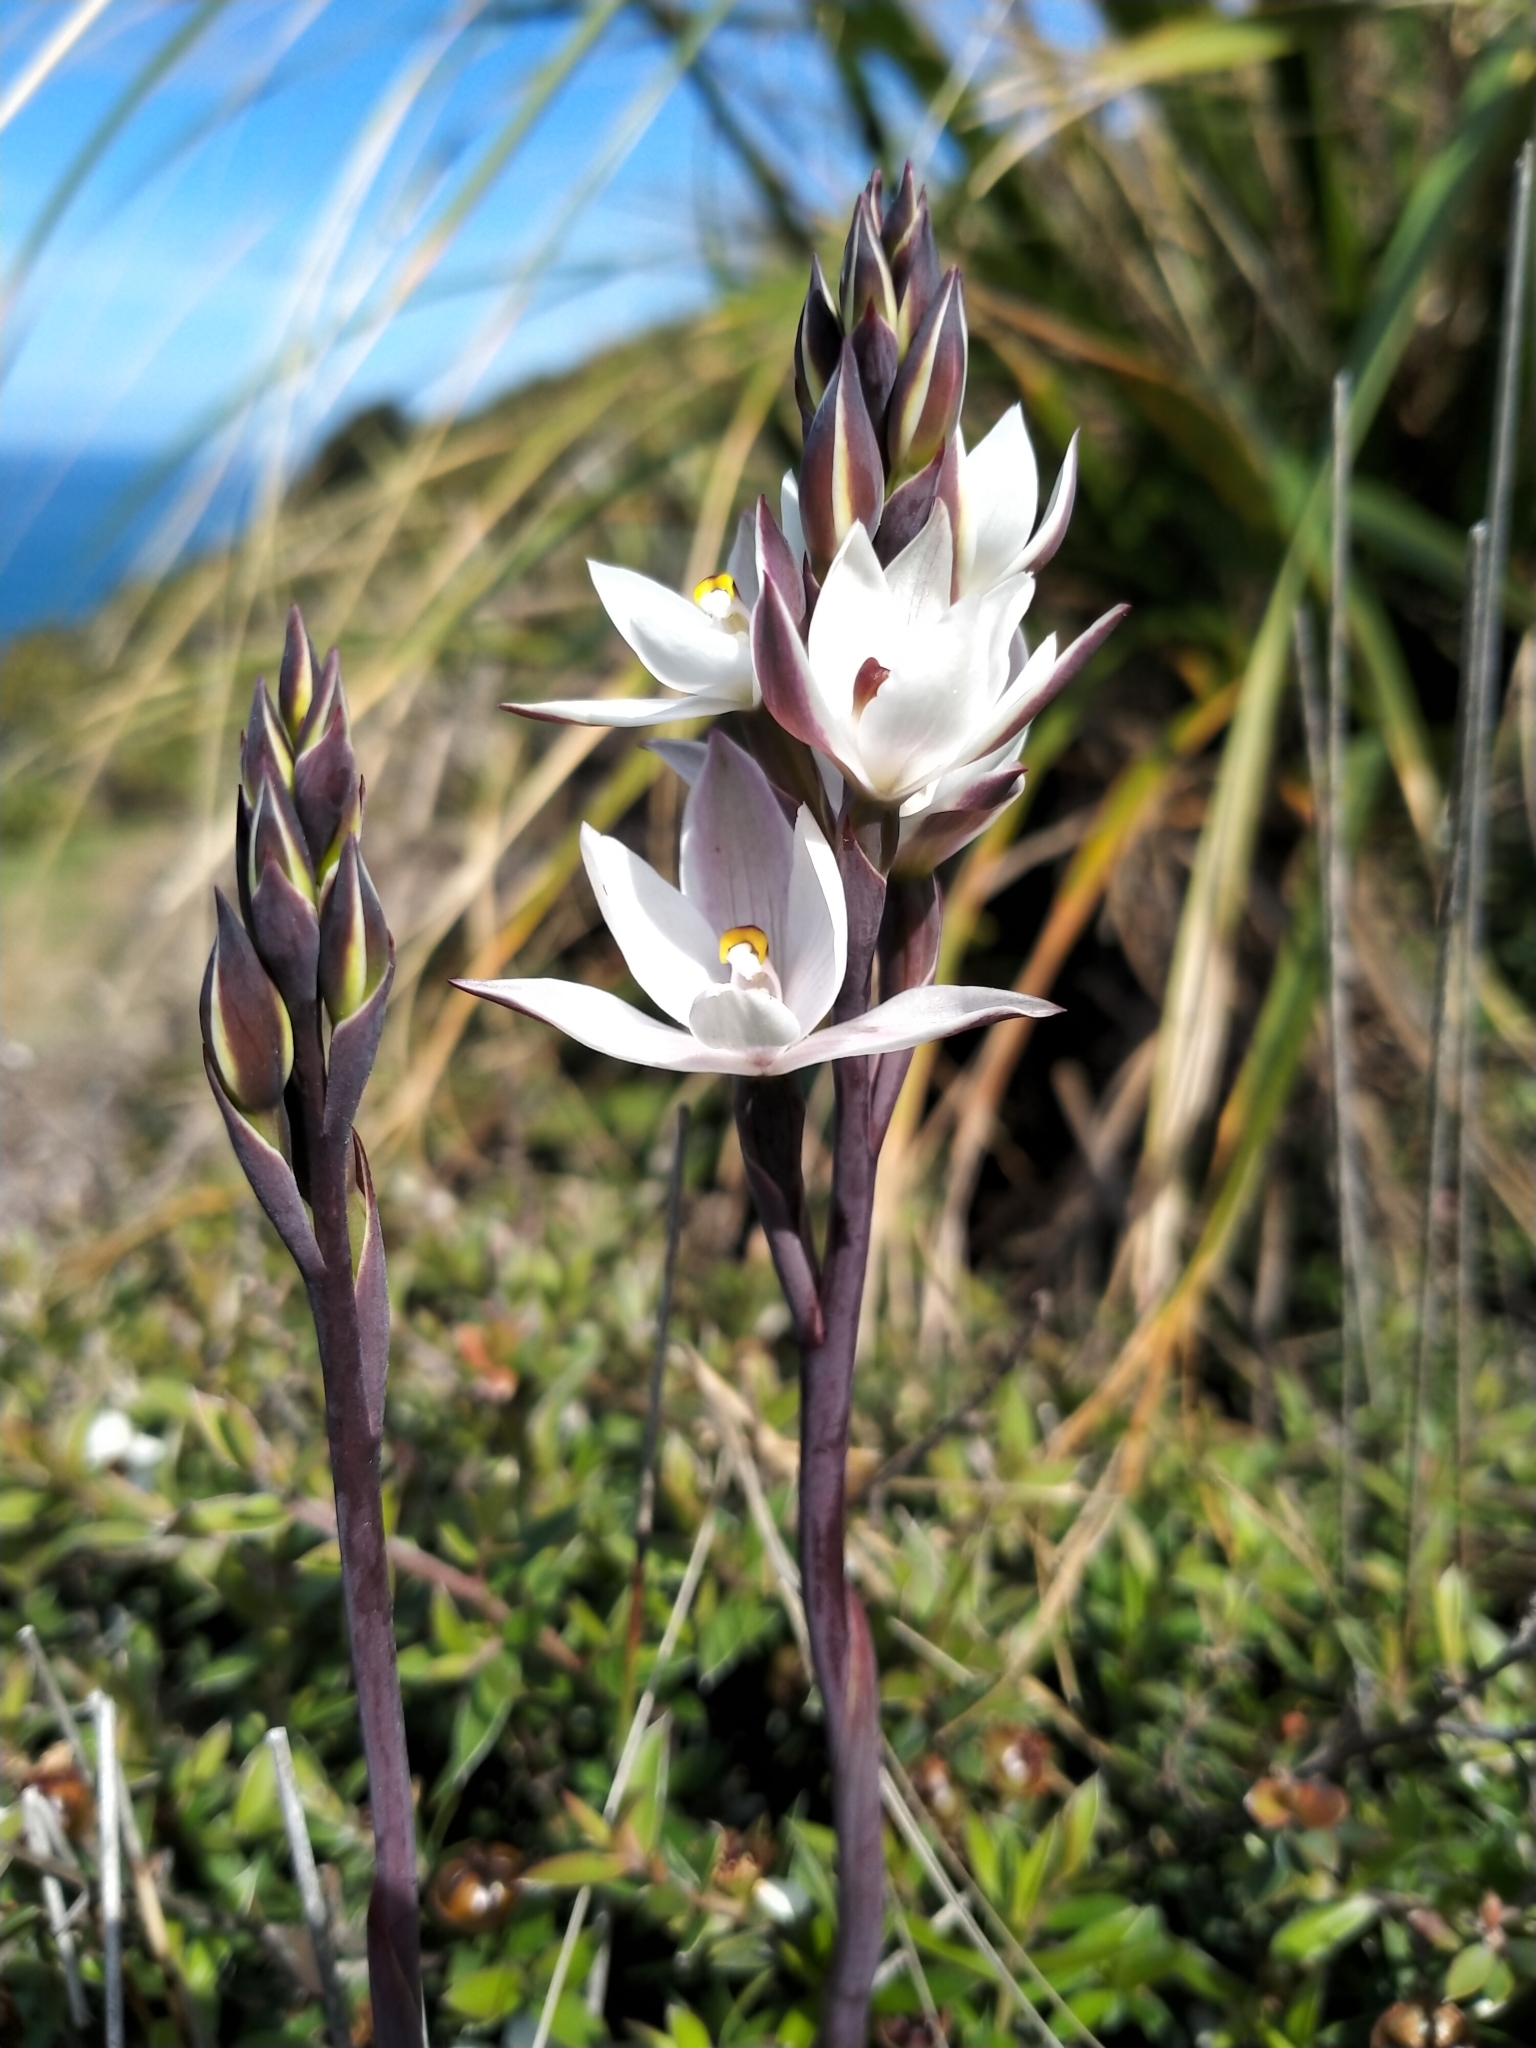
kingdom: Plantae
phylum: Tracheophyta
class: Liliopsida
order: Asparagales
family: Orchidaceae
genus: Thelymitra
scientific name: Thelymitra longifolia
